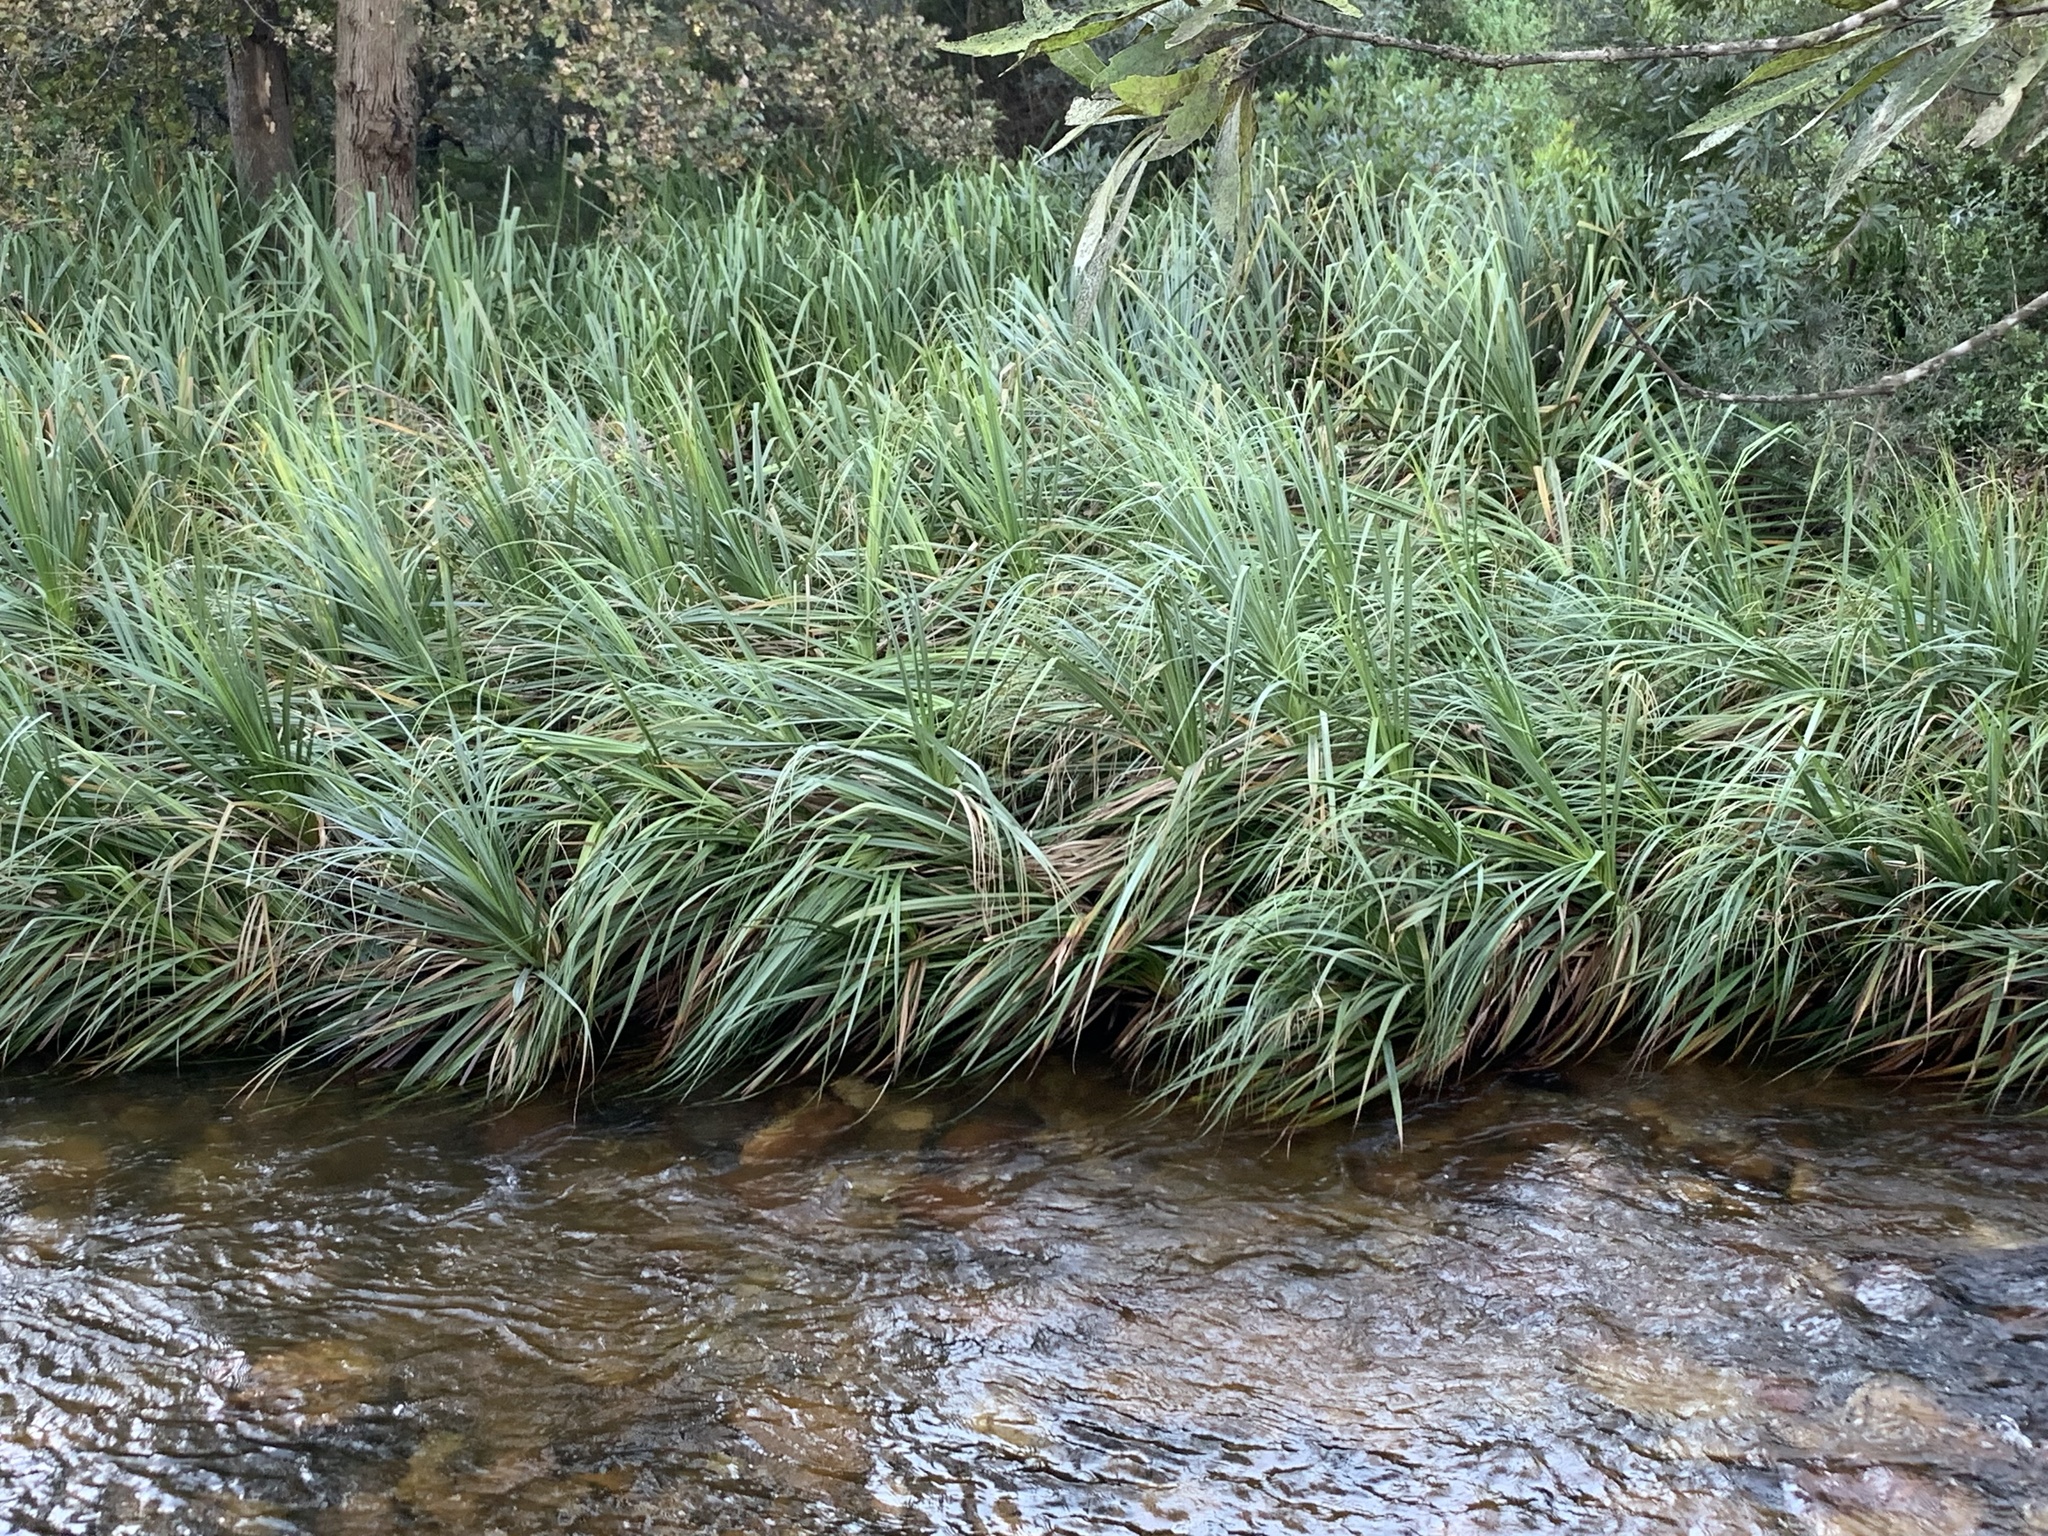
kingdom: Plantae
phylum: Tracheophyta
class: Liliopsida
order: Poales
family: Thurniaceae
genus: Prionium
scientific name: Prionium serratum
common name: Palmiet
